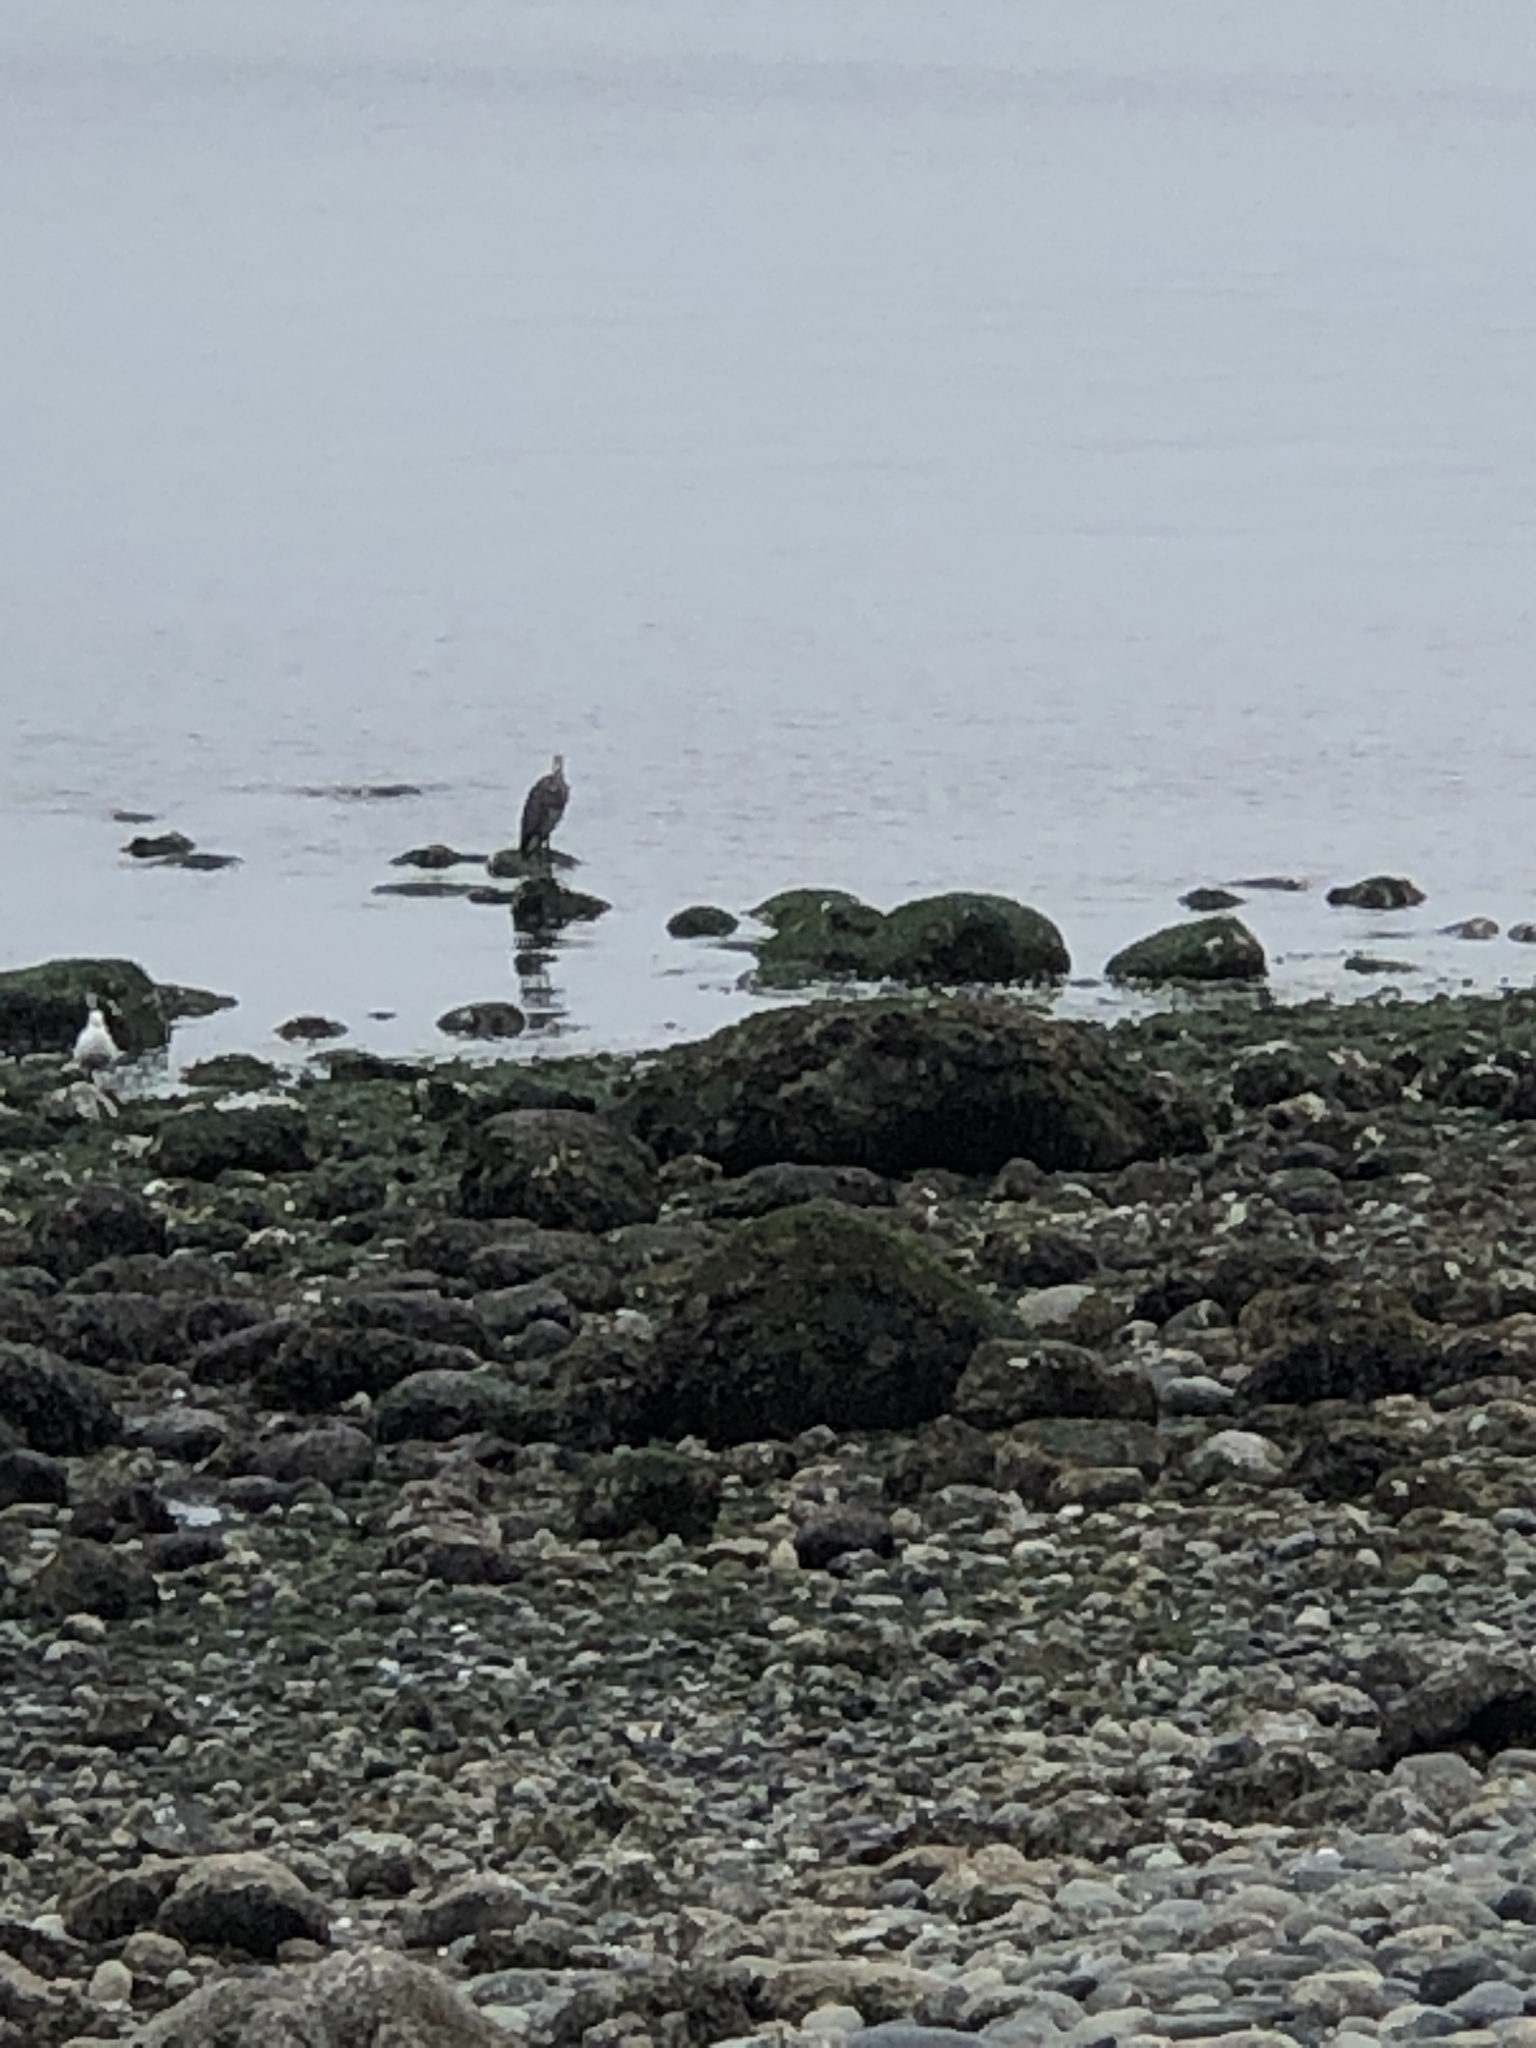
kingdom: Animalia
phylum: Chordata
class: Aves
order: Pelecaniformes
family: Ardeidae
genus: Ardea
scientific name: Ardea herodias
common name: Great blue heron
